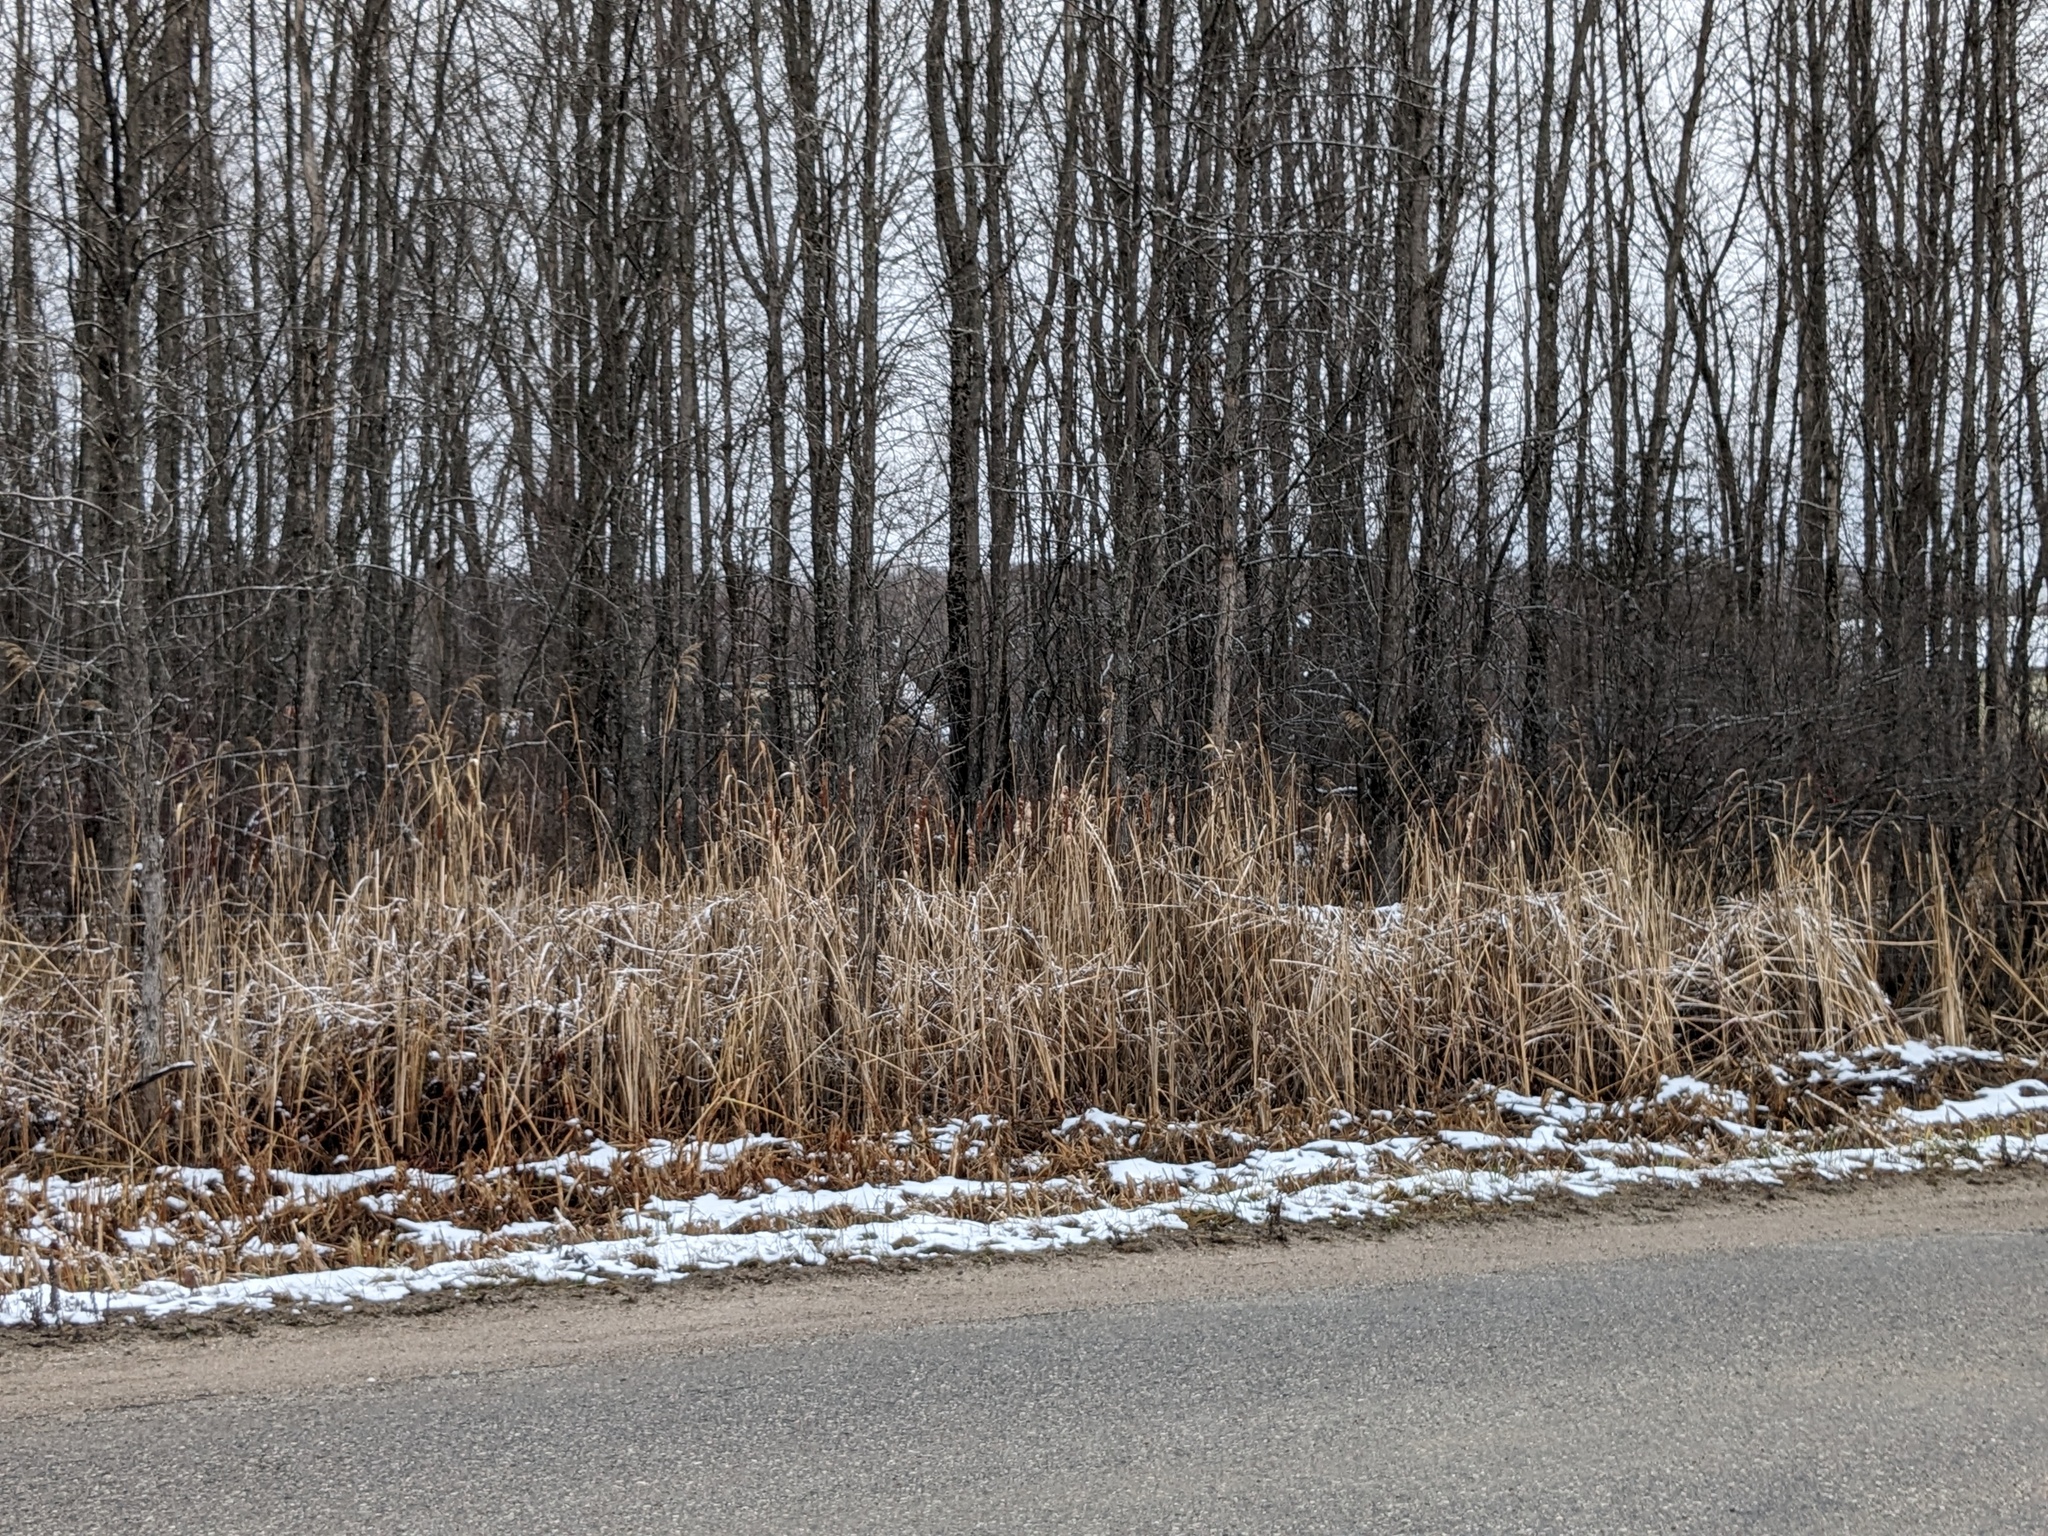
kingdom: Plantae
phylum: Tracheophyta
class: Liliopsida
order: Poales
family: Poaceae
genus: Phragmites
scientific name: Phragmites australis
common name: Common reed
